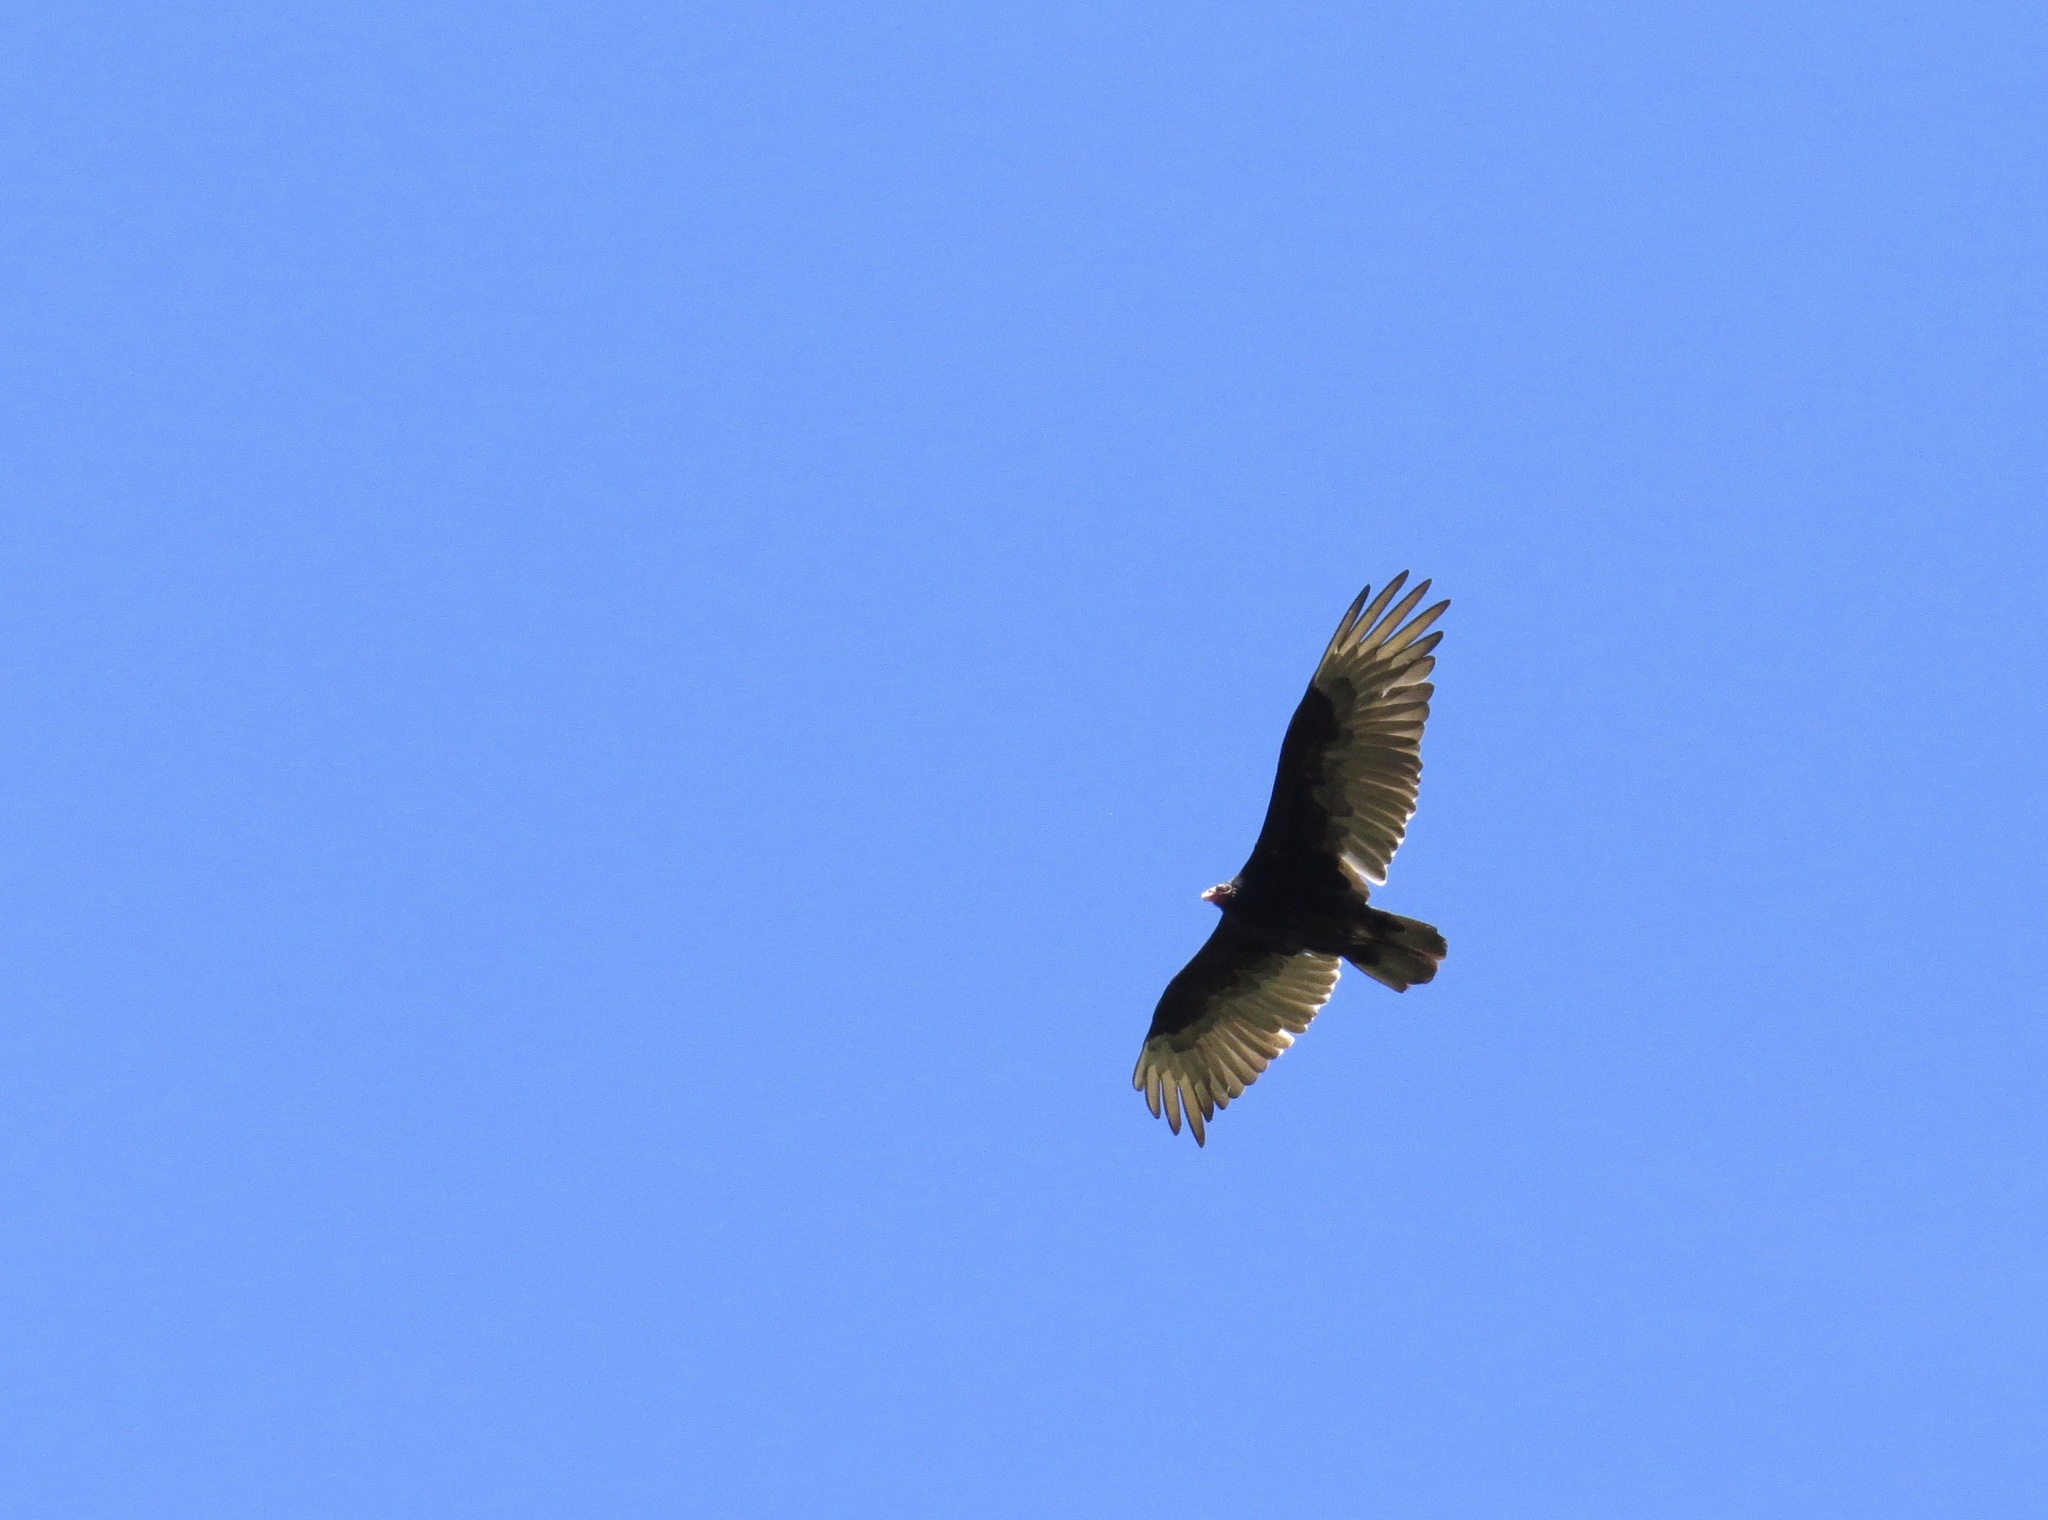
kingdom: Animalia
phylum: Chordata
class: Aves
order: Accipitriformes
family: Cathartidae
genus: Cathartes
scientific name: Cathartes aura
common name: Turkey vulture
